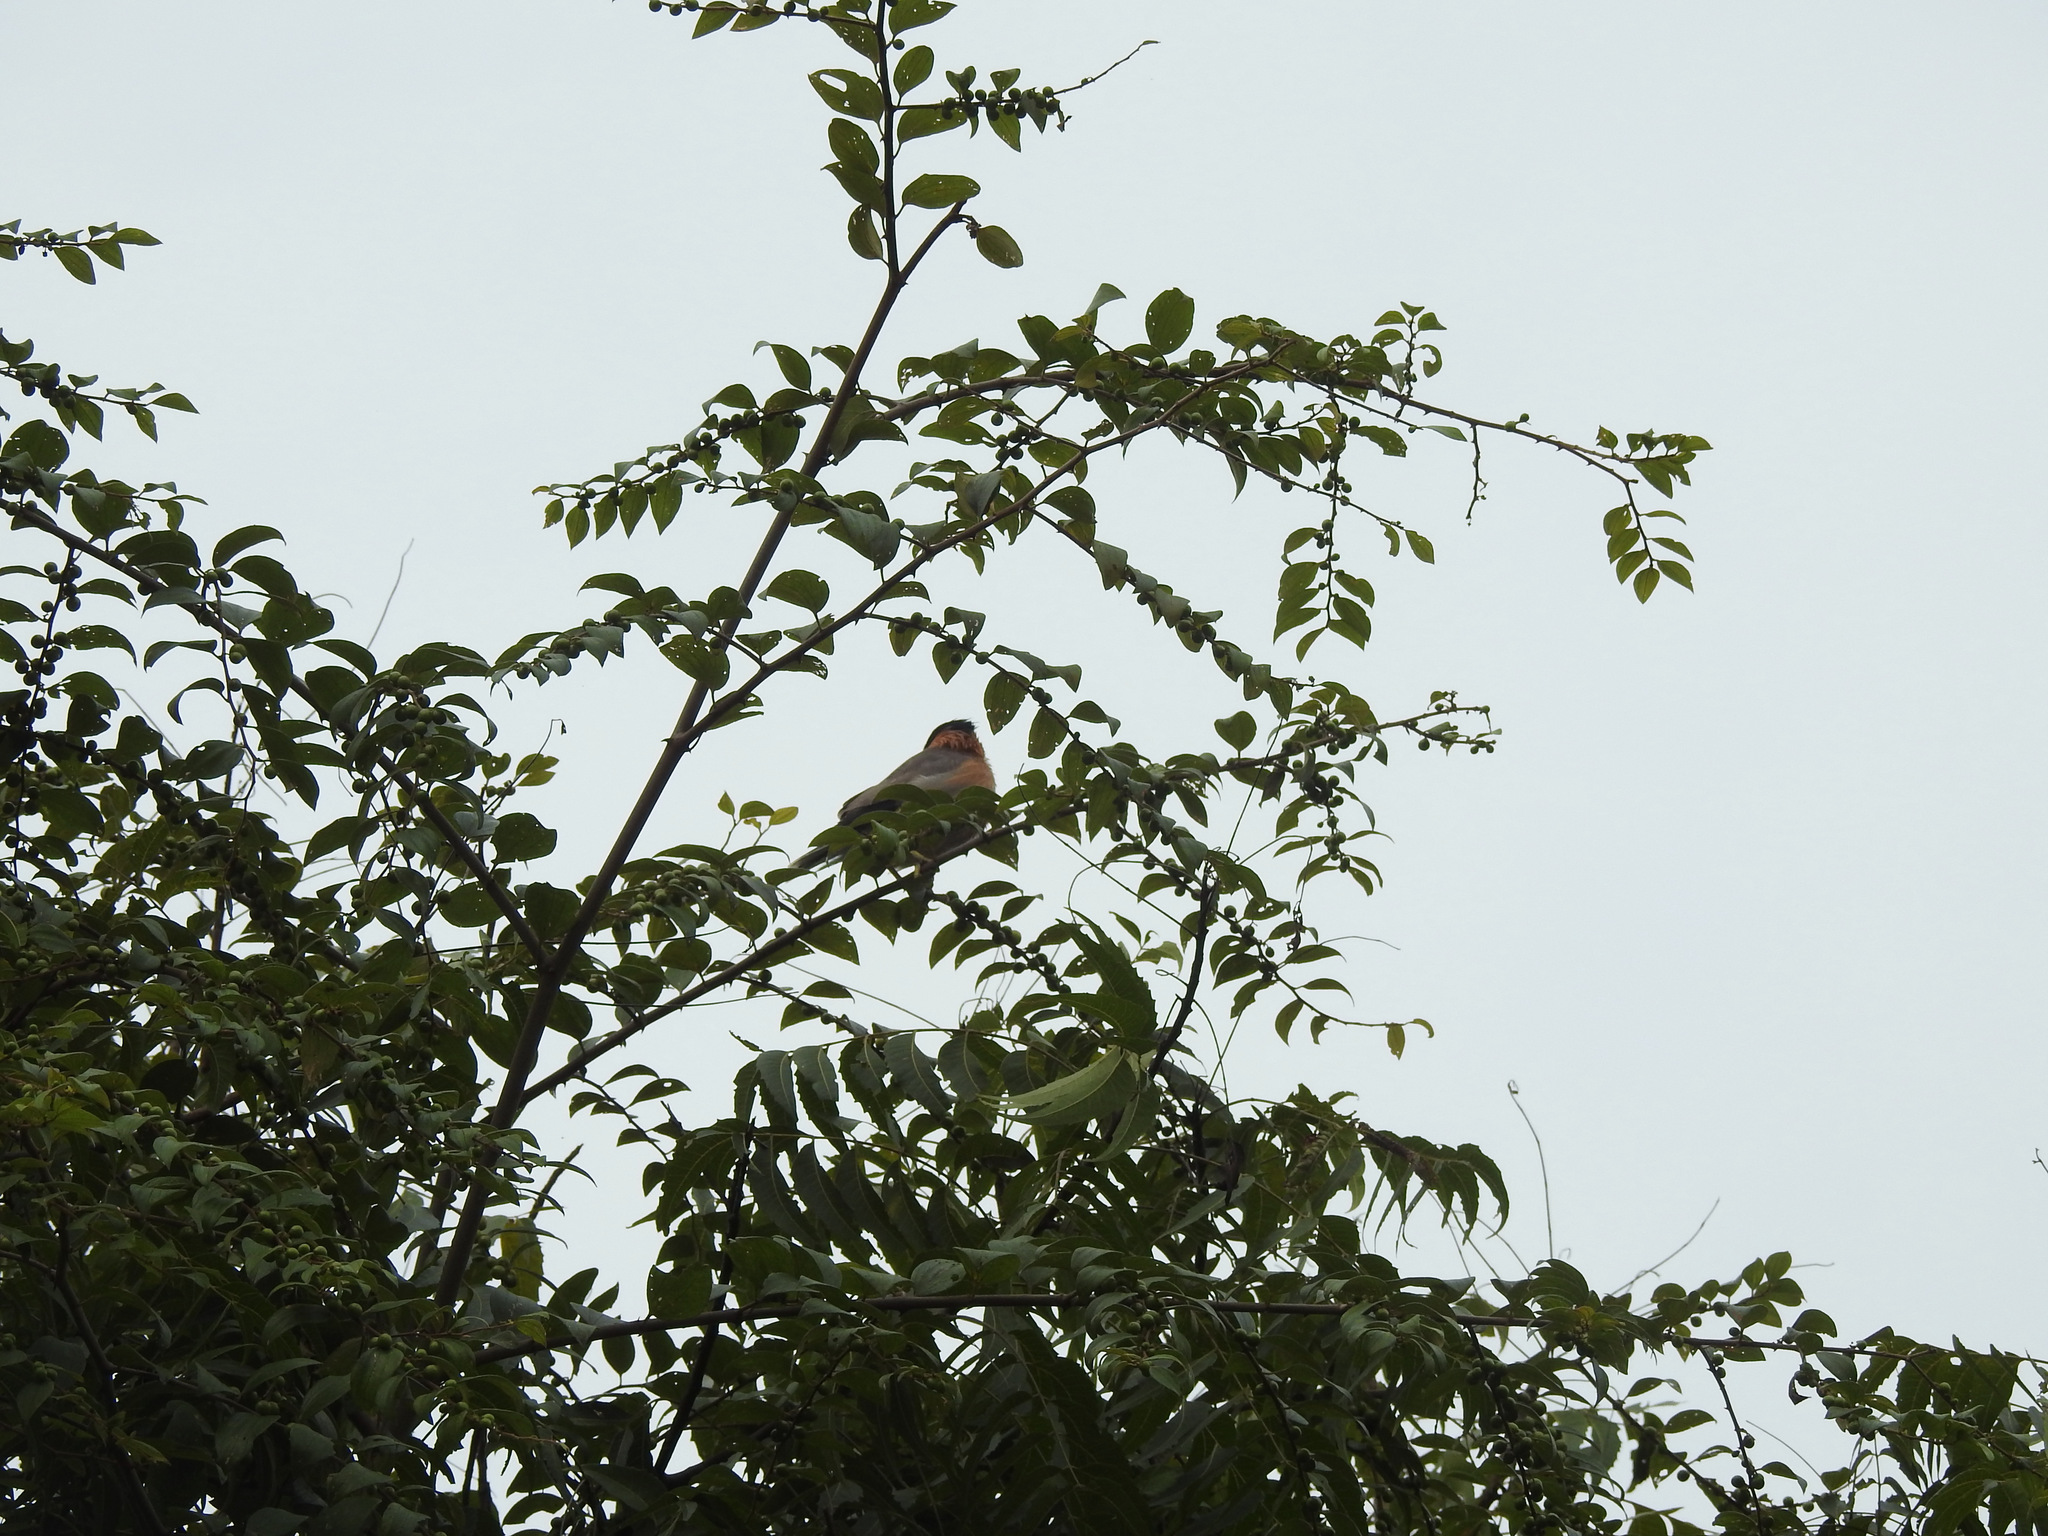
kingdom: Animalia
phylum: Chordata
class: Aves
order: Passeriformes
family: Sturnidae
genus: Sturnia
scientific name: Sturnia pagodarum
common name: Brahminy starling
